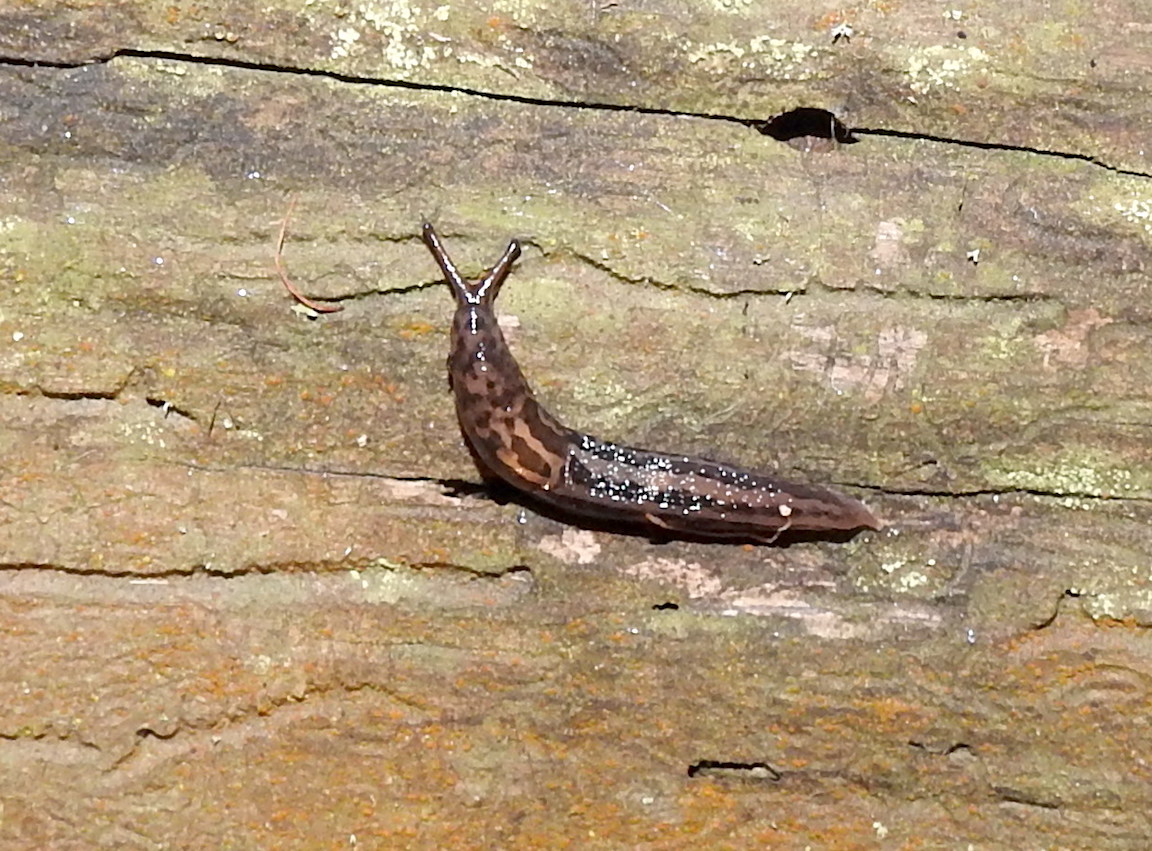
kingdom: Animalia
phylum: Mollusca
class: Gastropoda
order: Stylommatophora
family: Limacidae
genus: Limax
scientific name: Limax maximus
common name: Great grey slug
